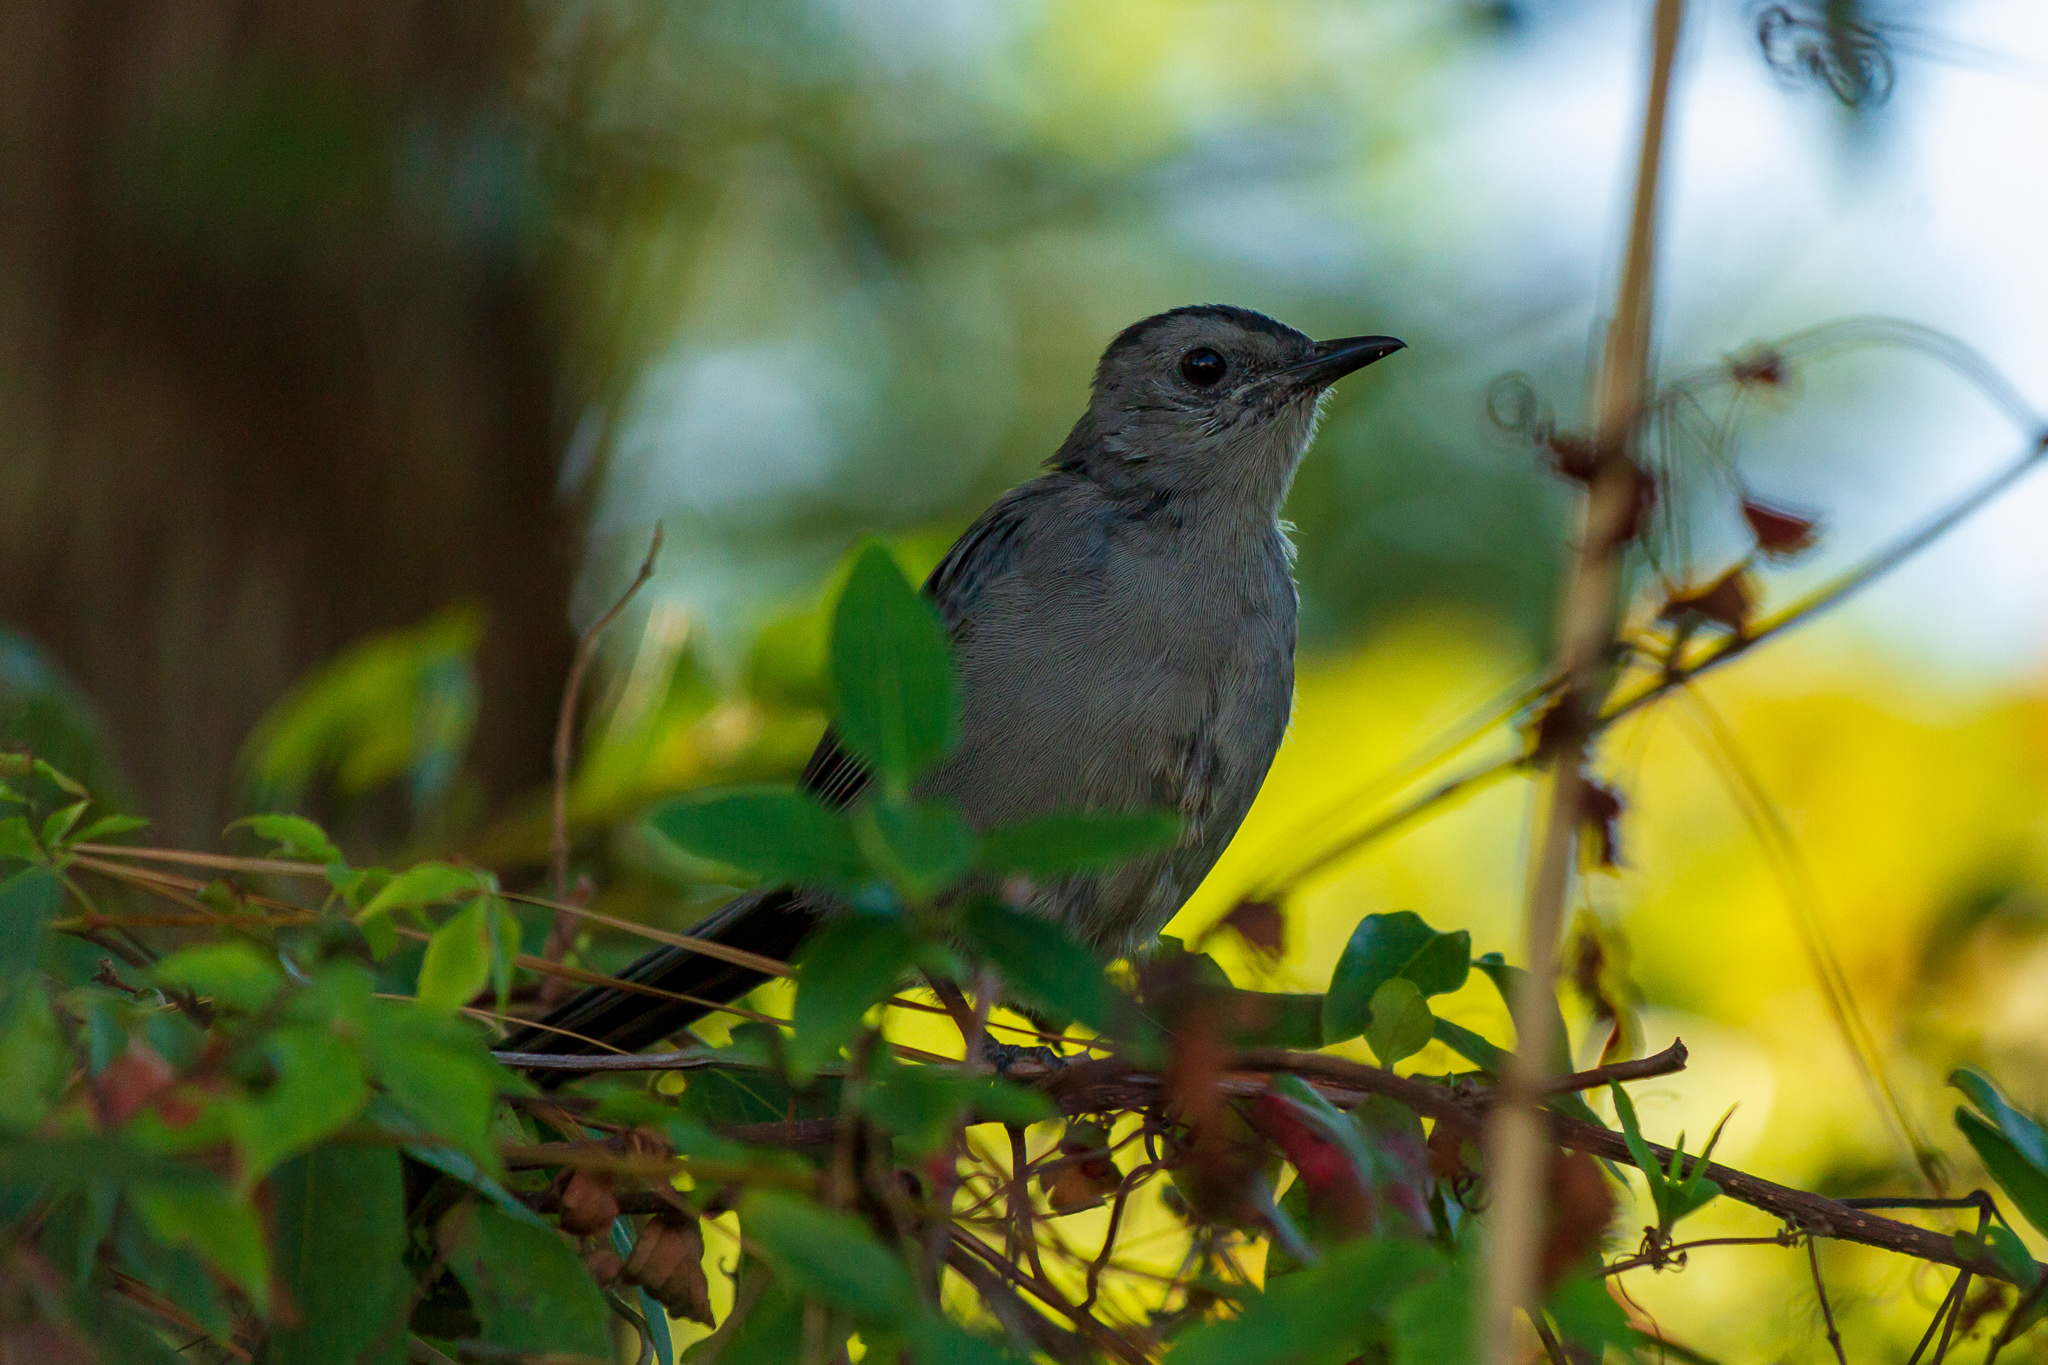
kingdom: Animalia
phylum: Chordata
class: Aves
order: Passeriformes
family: Mimidae
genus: Dumetella
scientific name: Dumetella carolinensis
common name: Gray catbird
